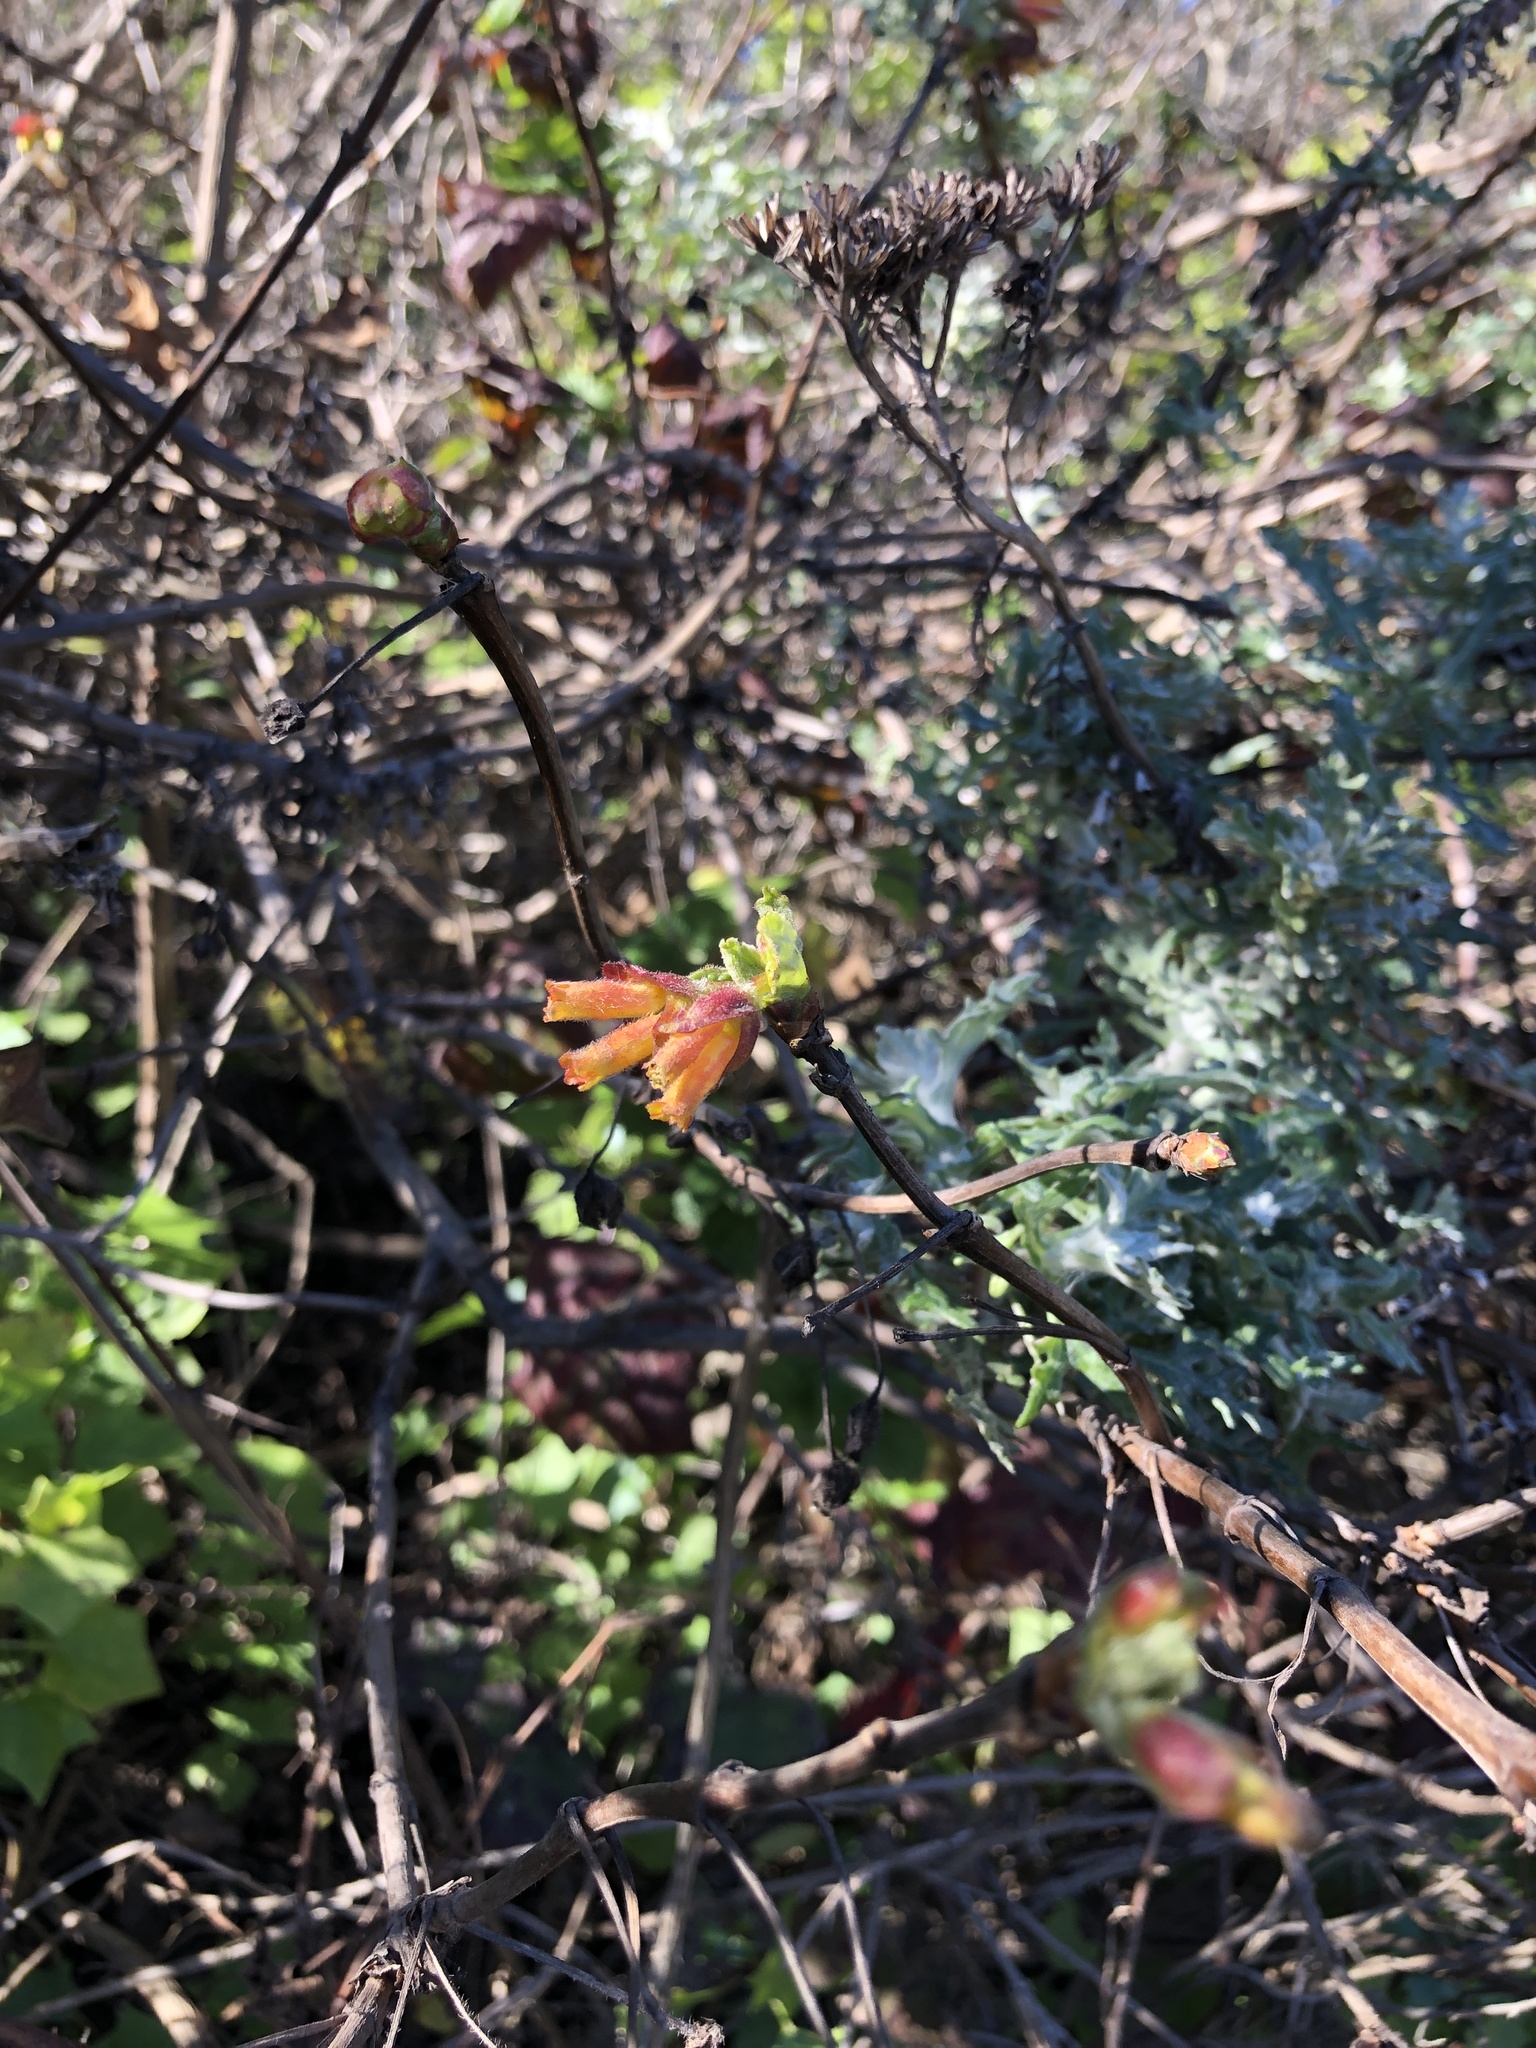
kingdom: Plantae
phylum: Tracheophyta
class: Magnoliopsida
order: Dipsacales
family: Caprifoliaceae
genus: Lonicera
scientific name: Lonicera involucrata
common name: Californian honeysuckle
